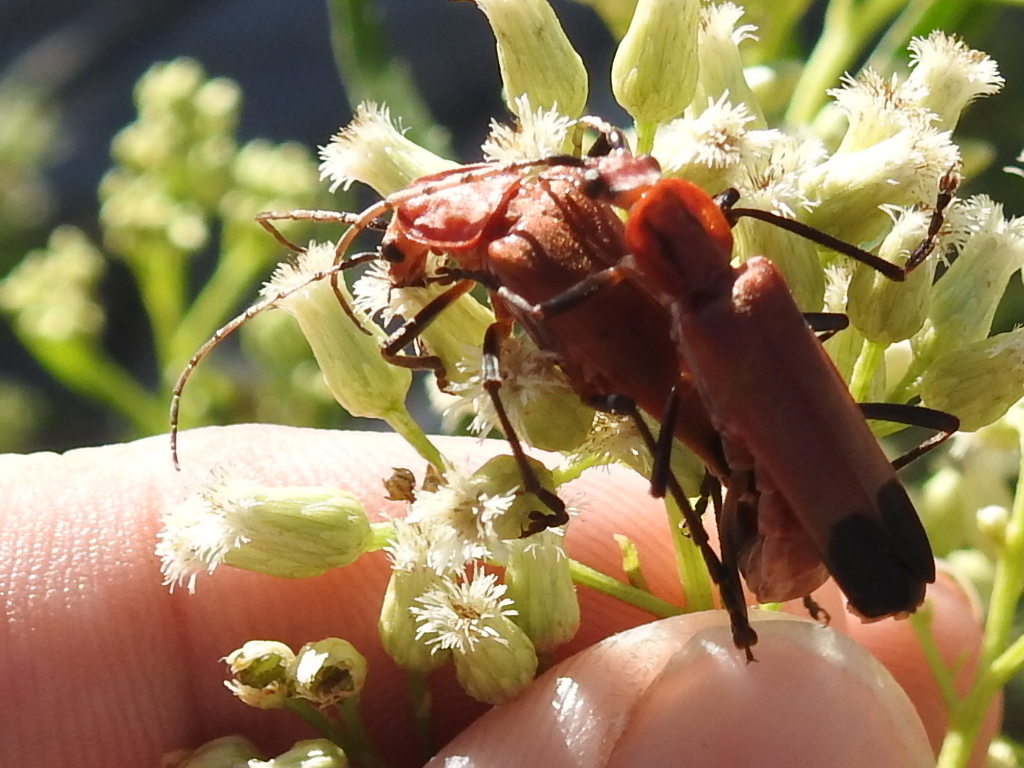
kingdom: Animalia
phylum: Arthropoda
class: Insecta
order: Coleoptera
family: Cantharidae
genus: Chauliognathus
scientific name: Chauliognathus lecontei
